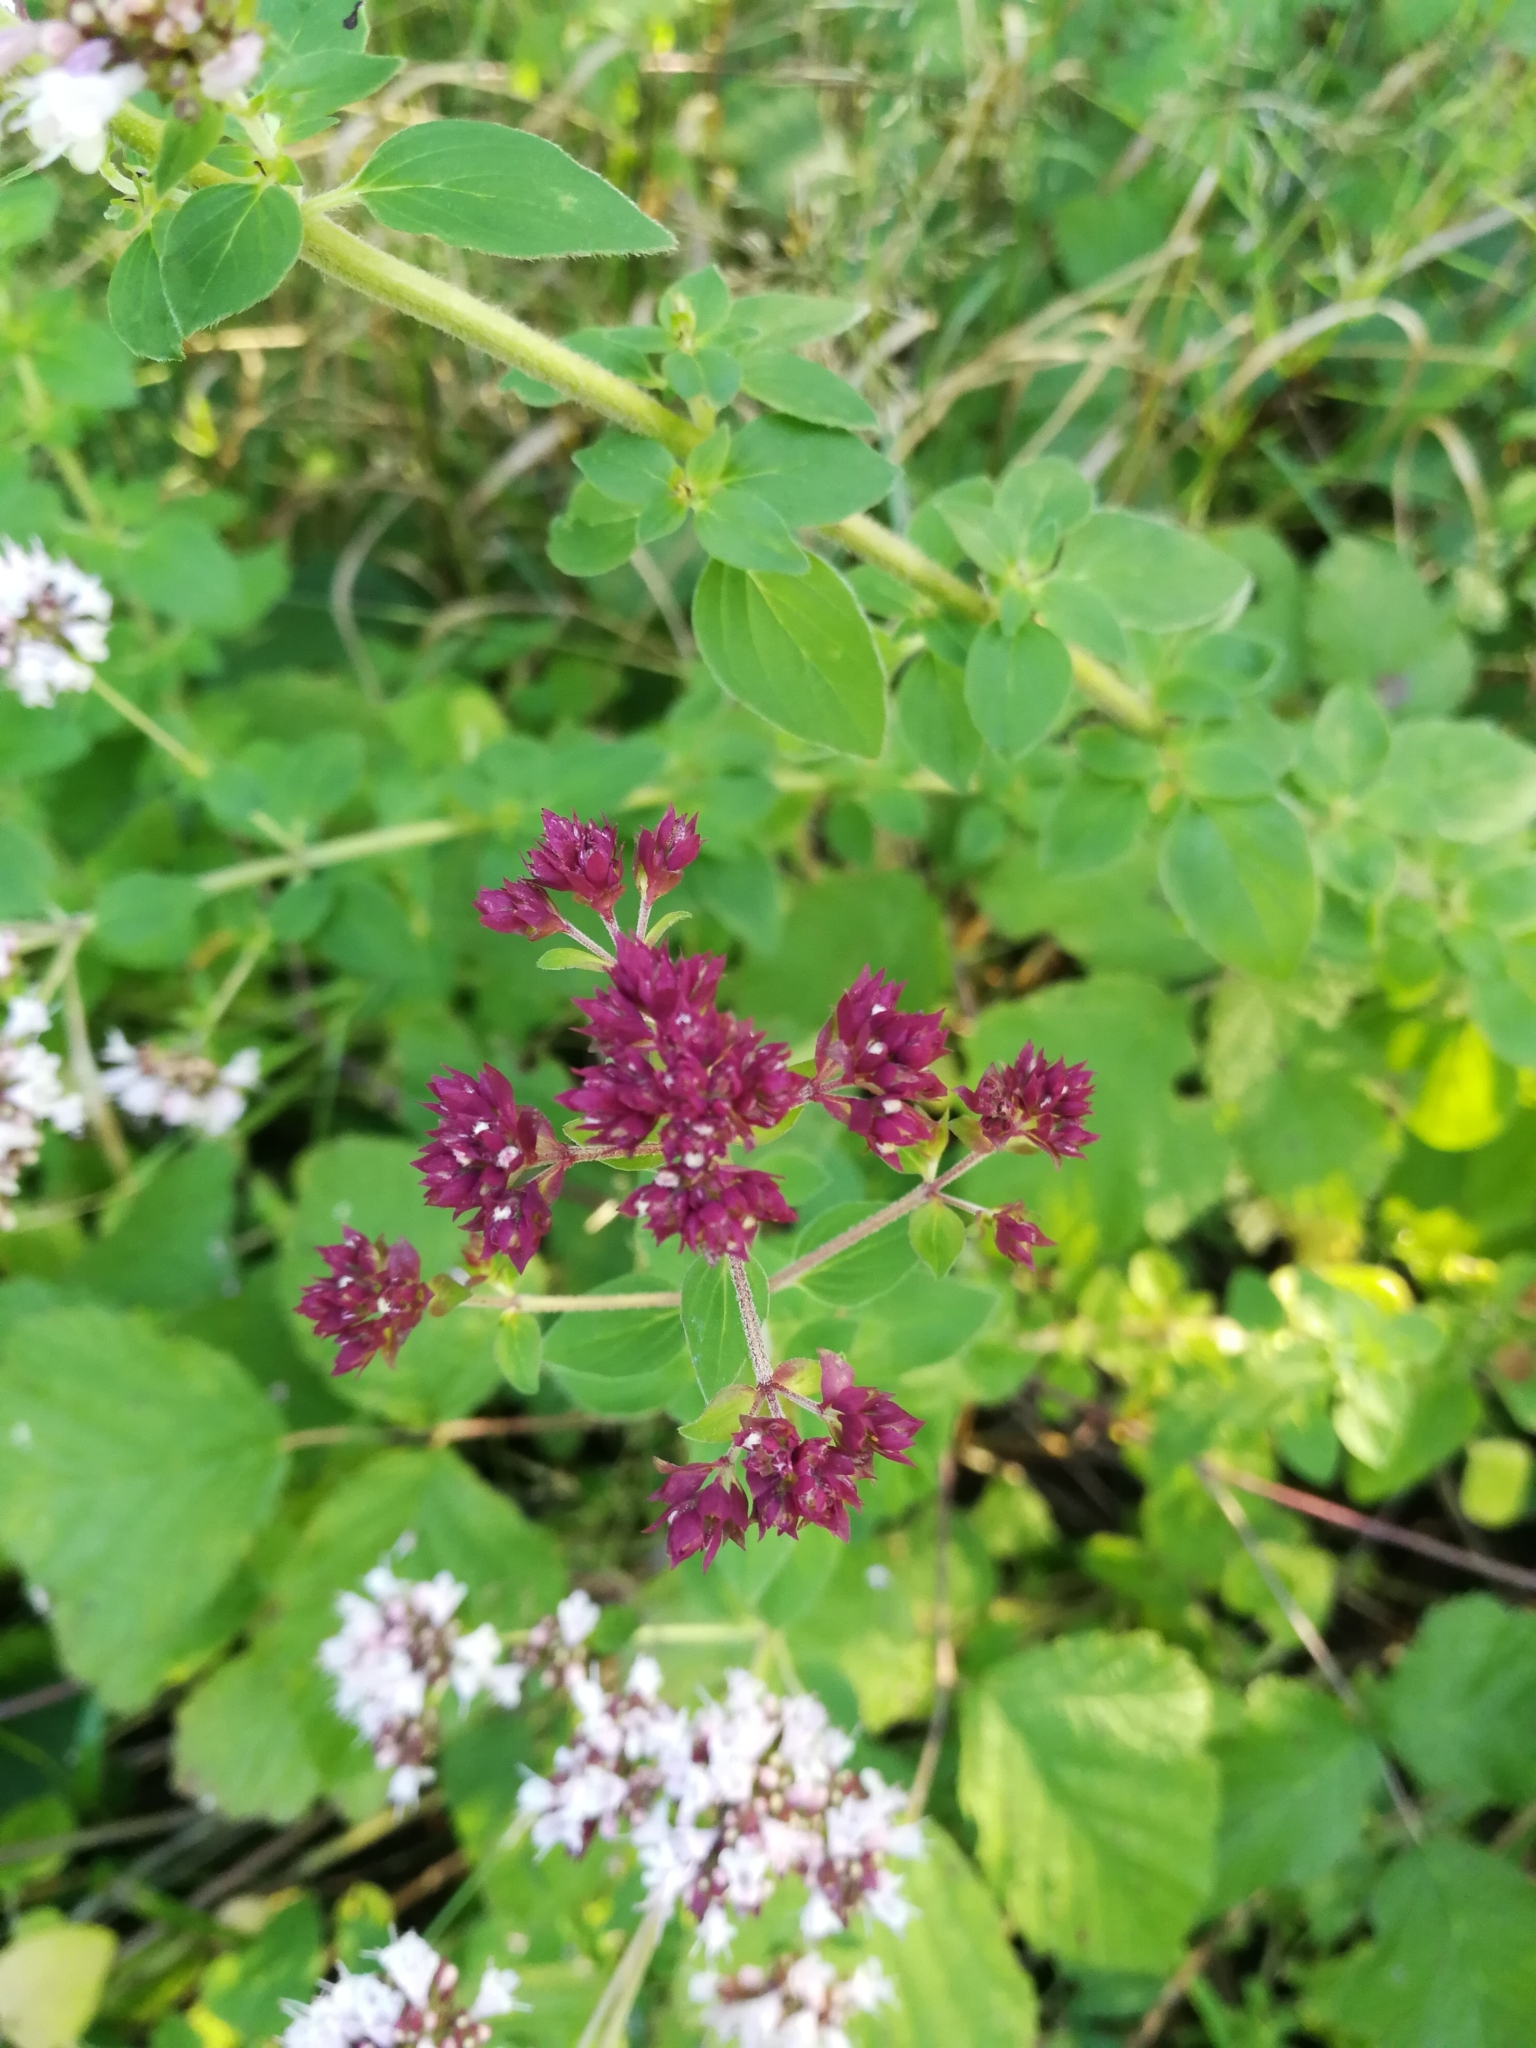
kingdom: Plantae
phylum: Tracheophyta
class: Magnoliopsida
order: Lamiales
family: Lamiaceae
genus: Origanum
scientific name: Origanum vulgare
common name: Wild marjoram
